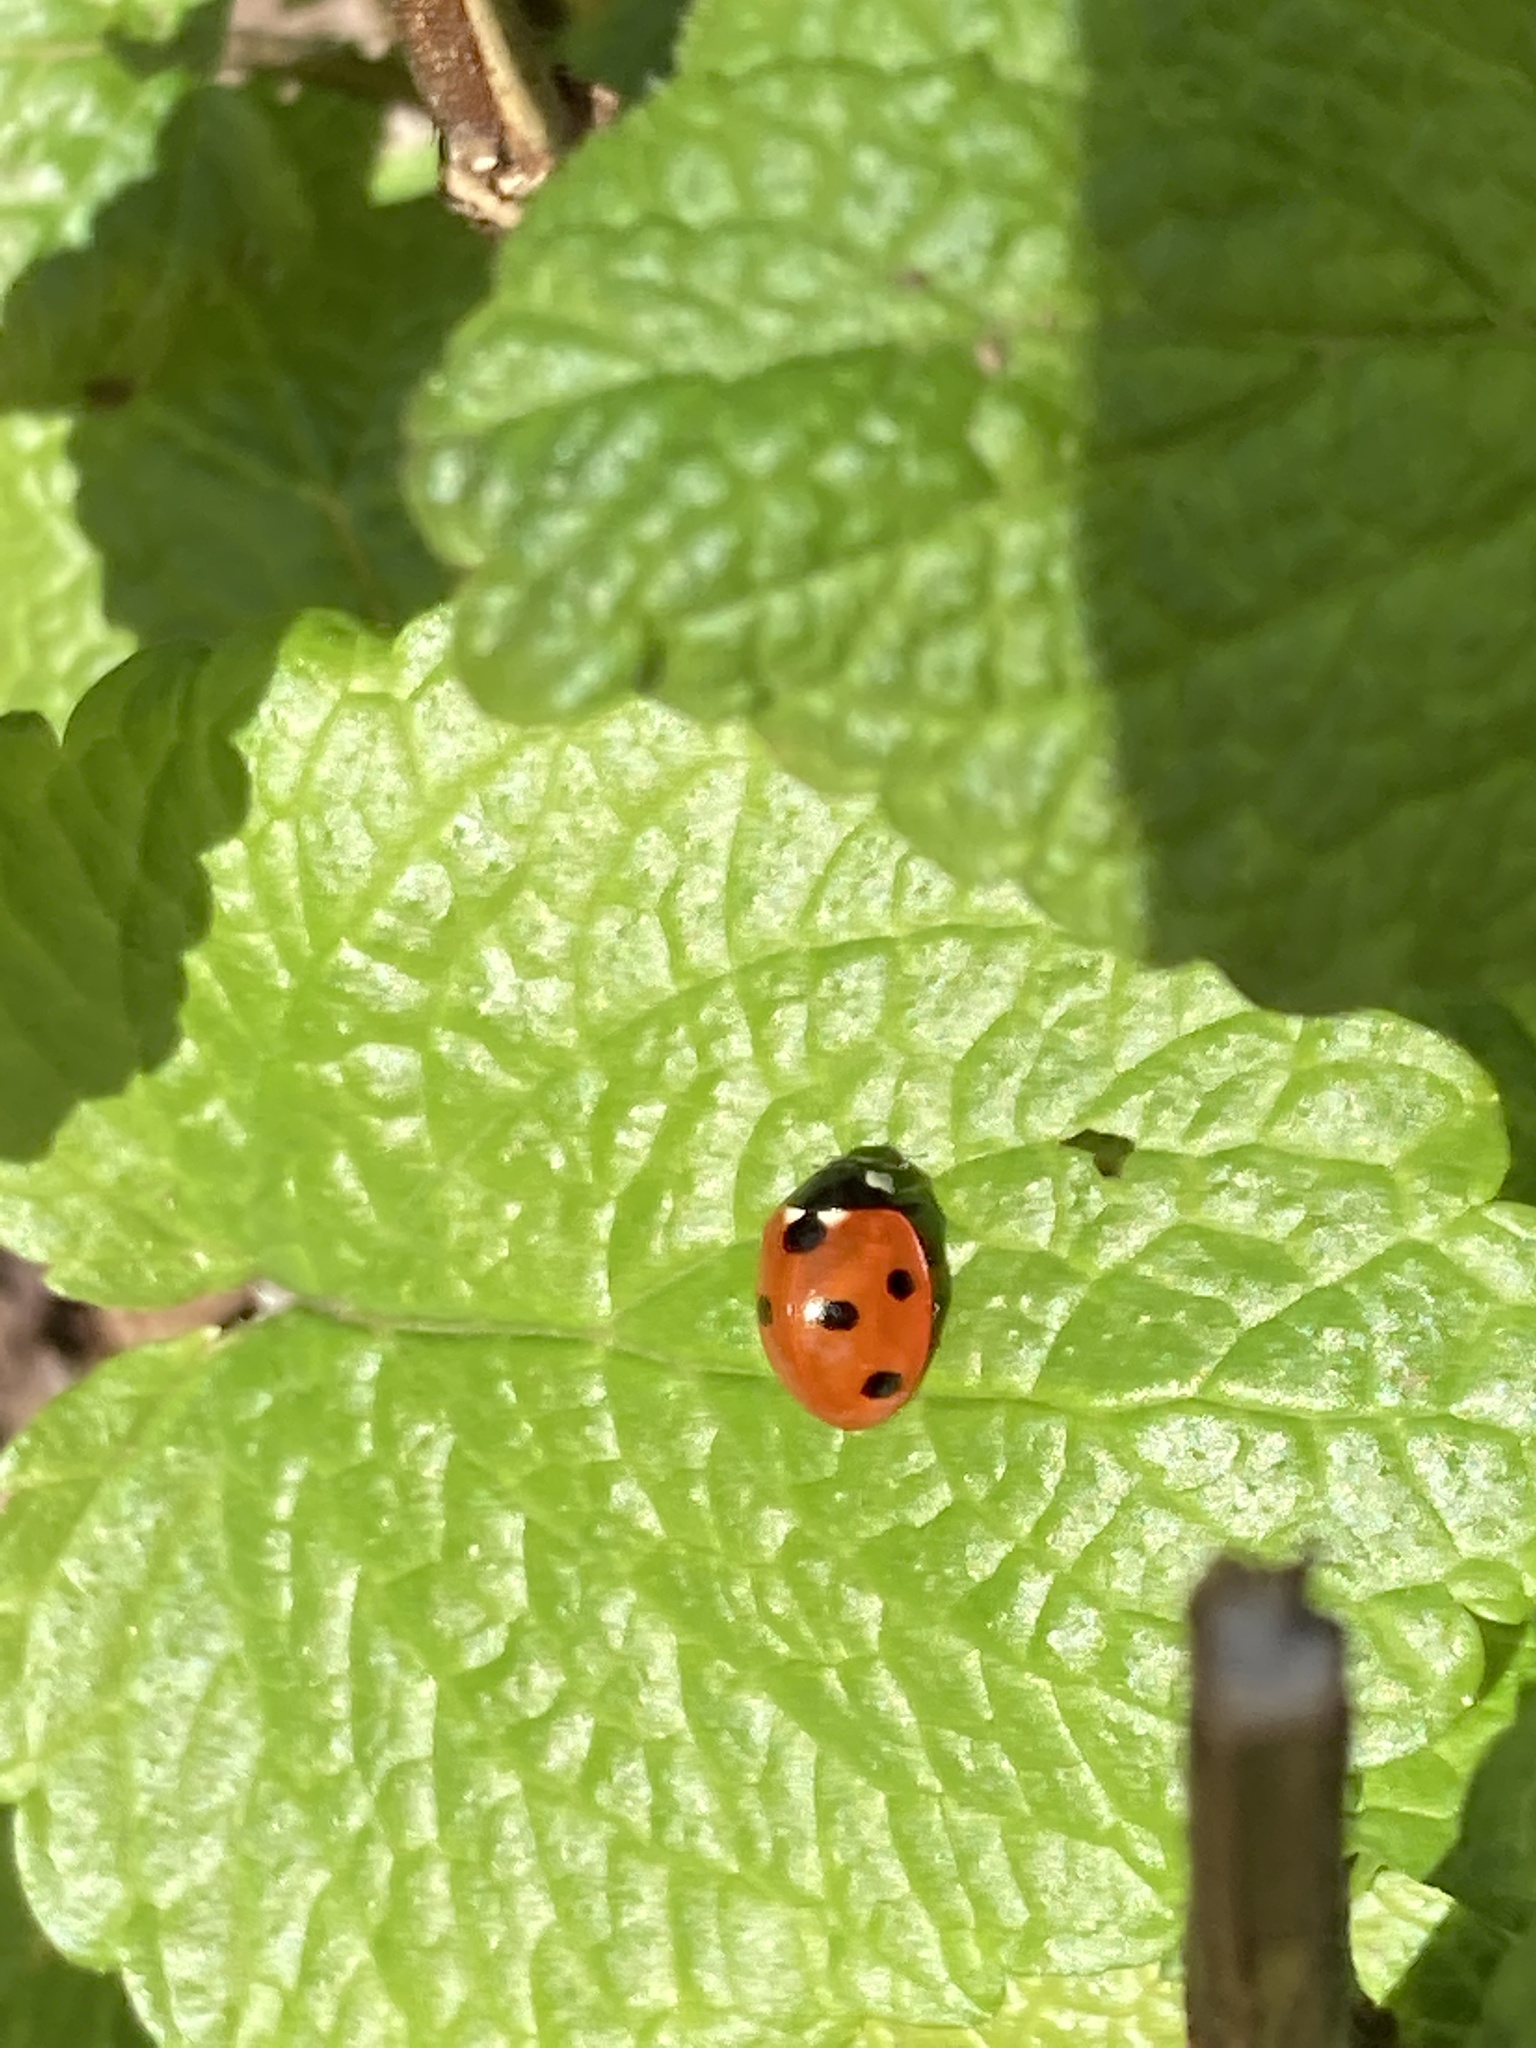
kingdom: Animalia
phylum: Arthropoda
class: Insecta
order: Coleoptera
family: Coccinellidae
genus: Coccinella
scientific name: Coccinella septempunctata
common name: Sevenspotted lady beetle
